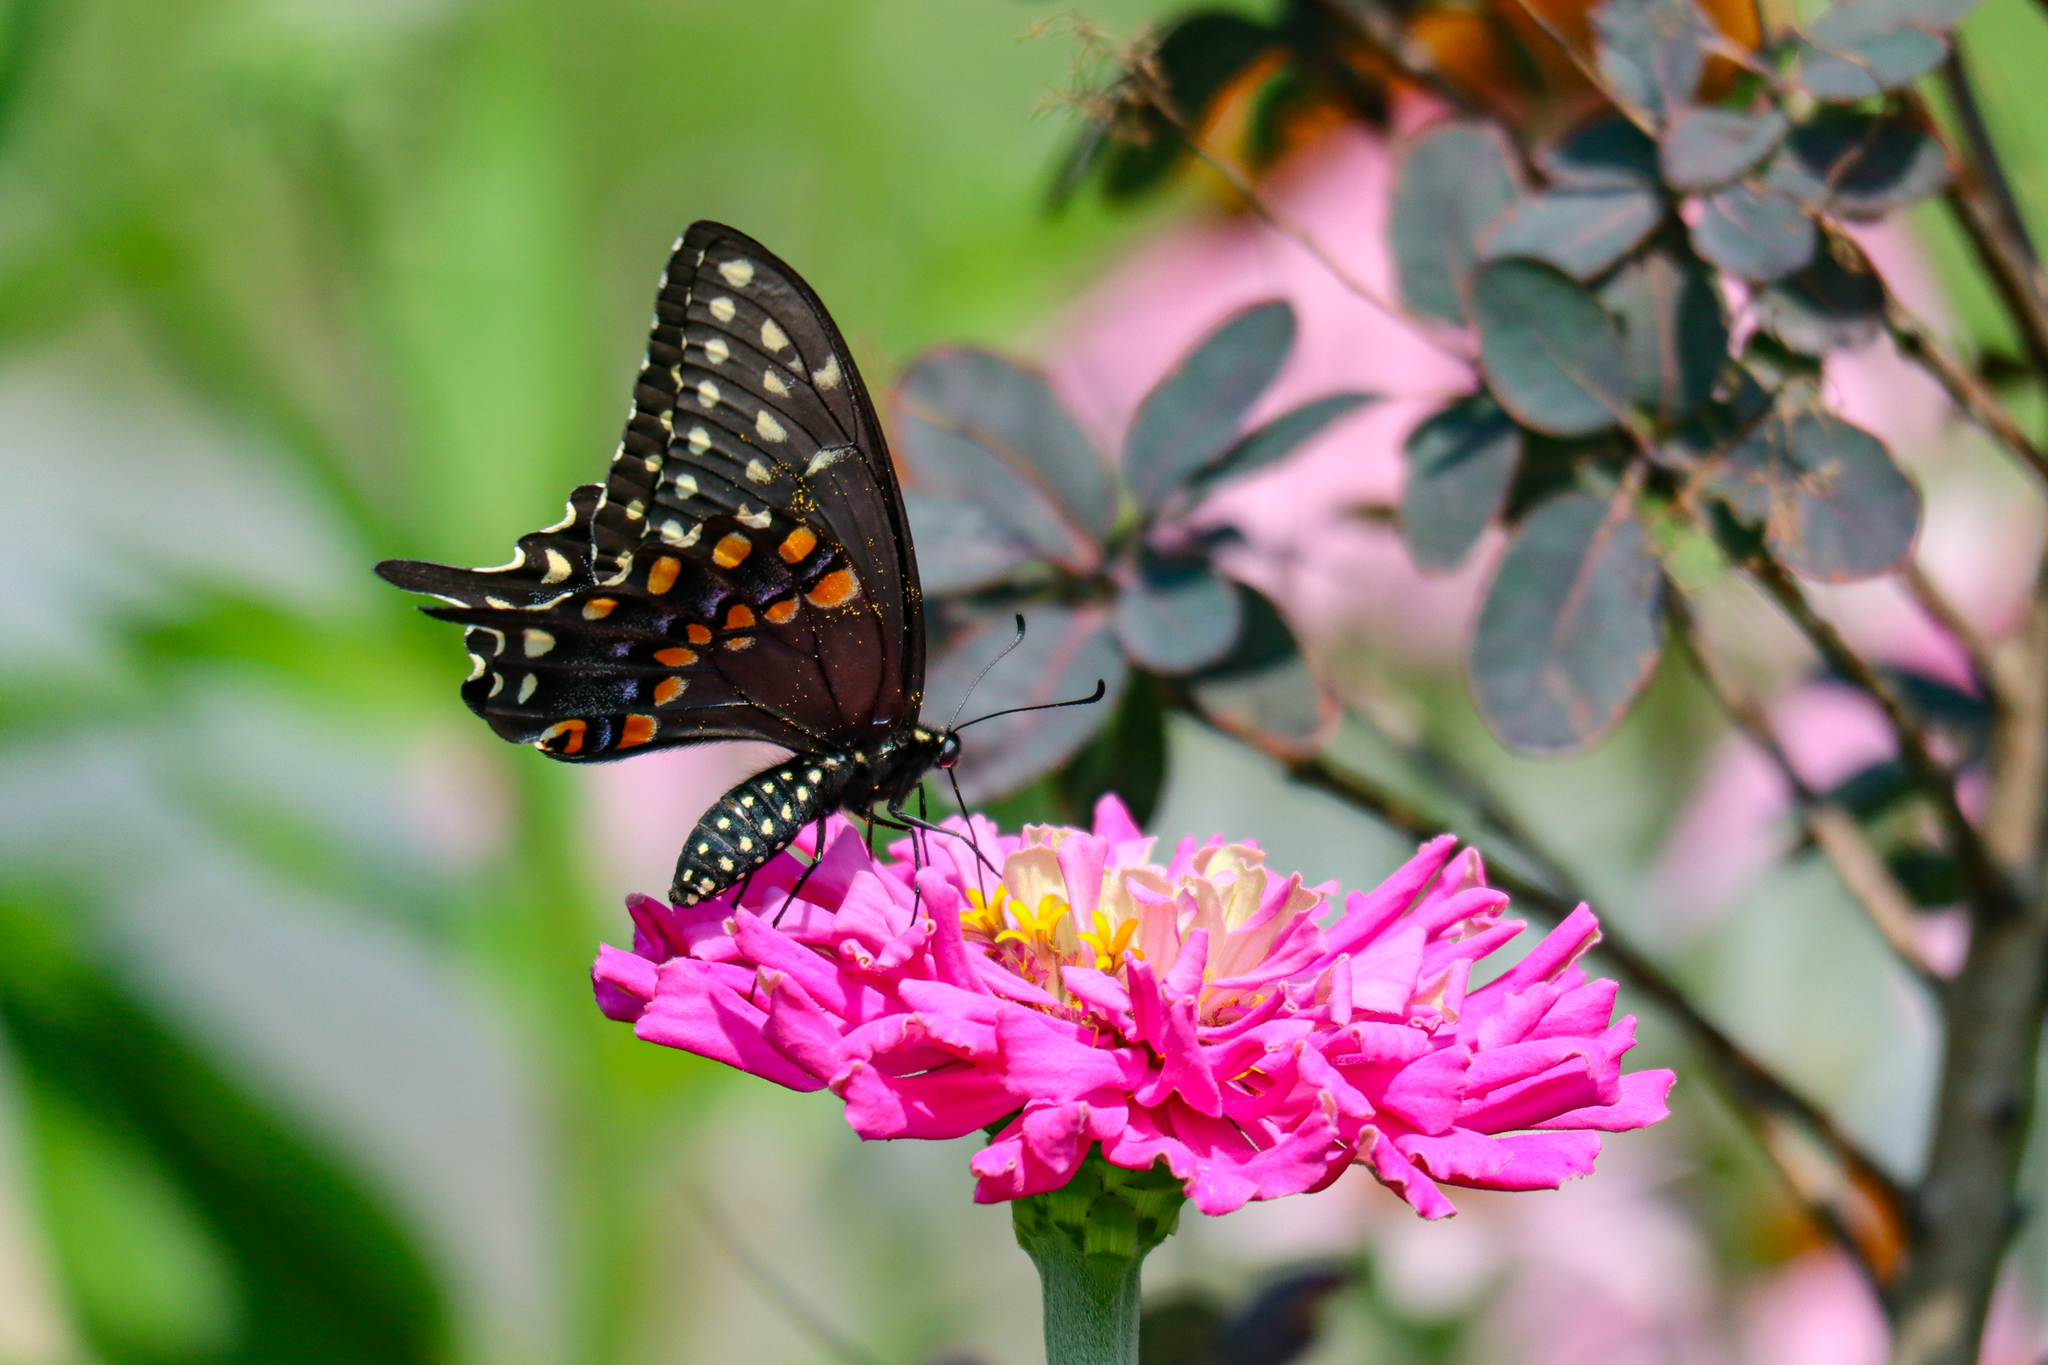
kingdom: Animalia
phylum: Arthropoda
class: Insecta
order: Lepidoptera
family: Papilionidae
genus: Papilio
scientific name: Papilio polyxenes
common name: Black swallowtail
